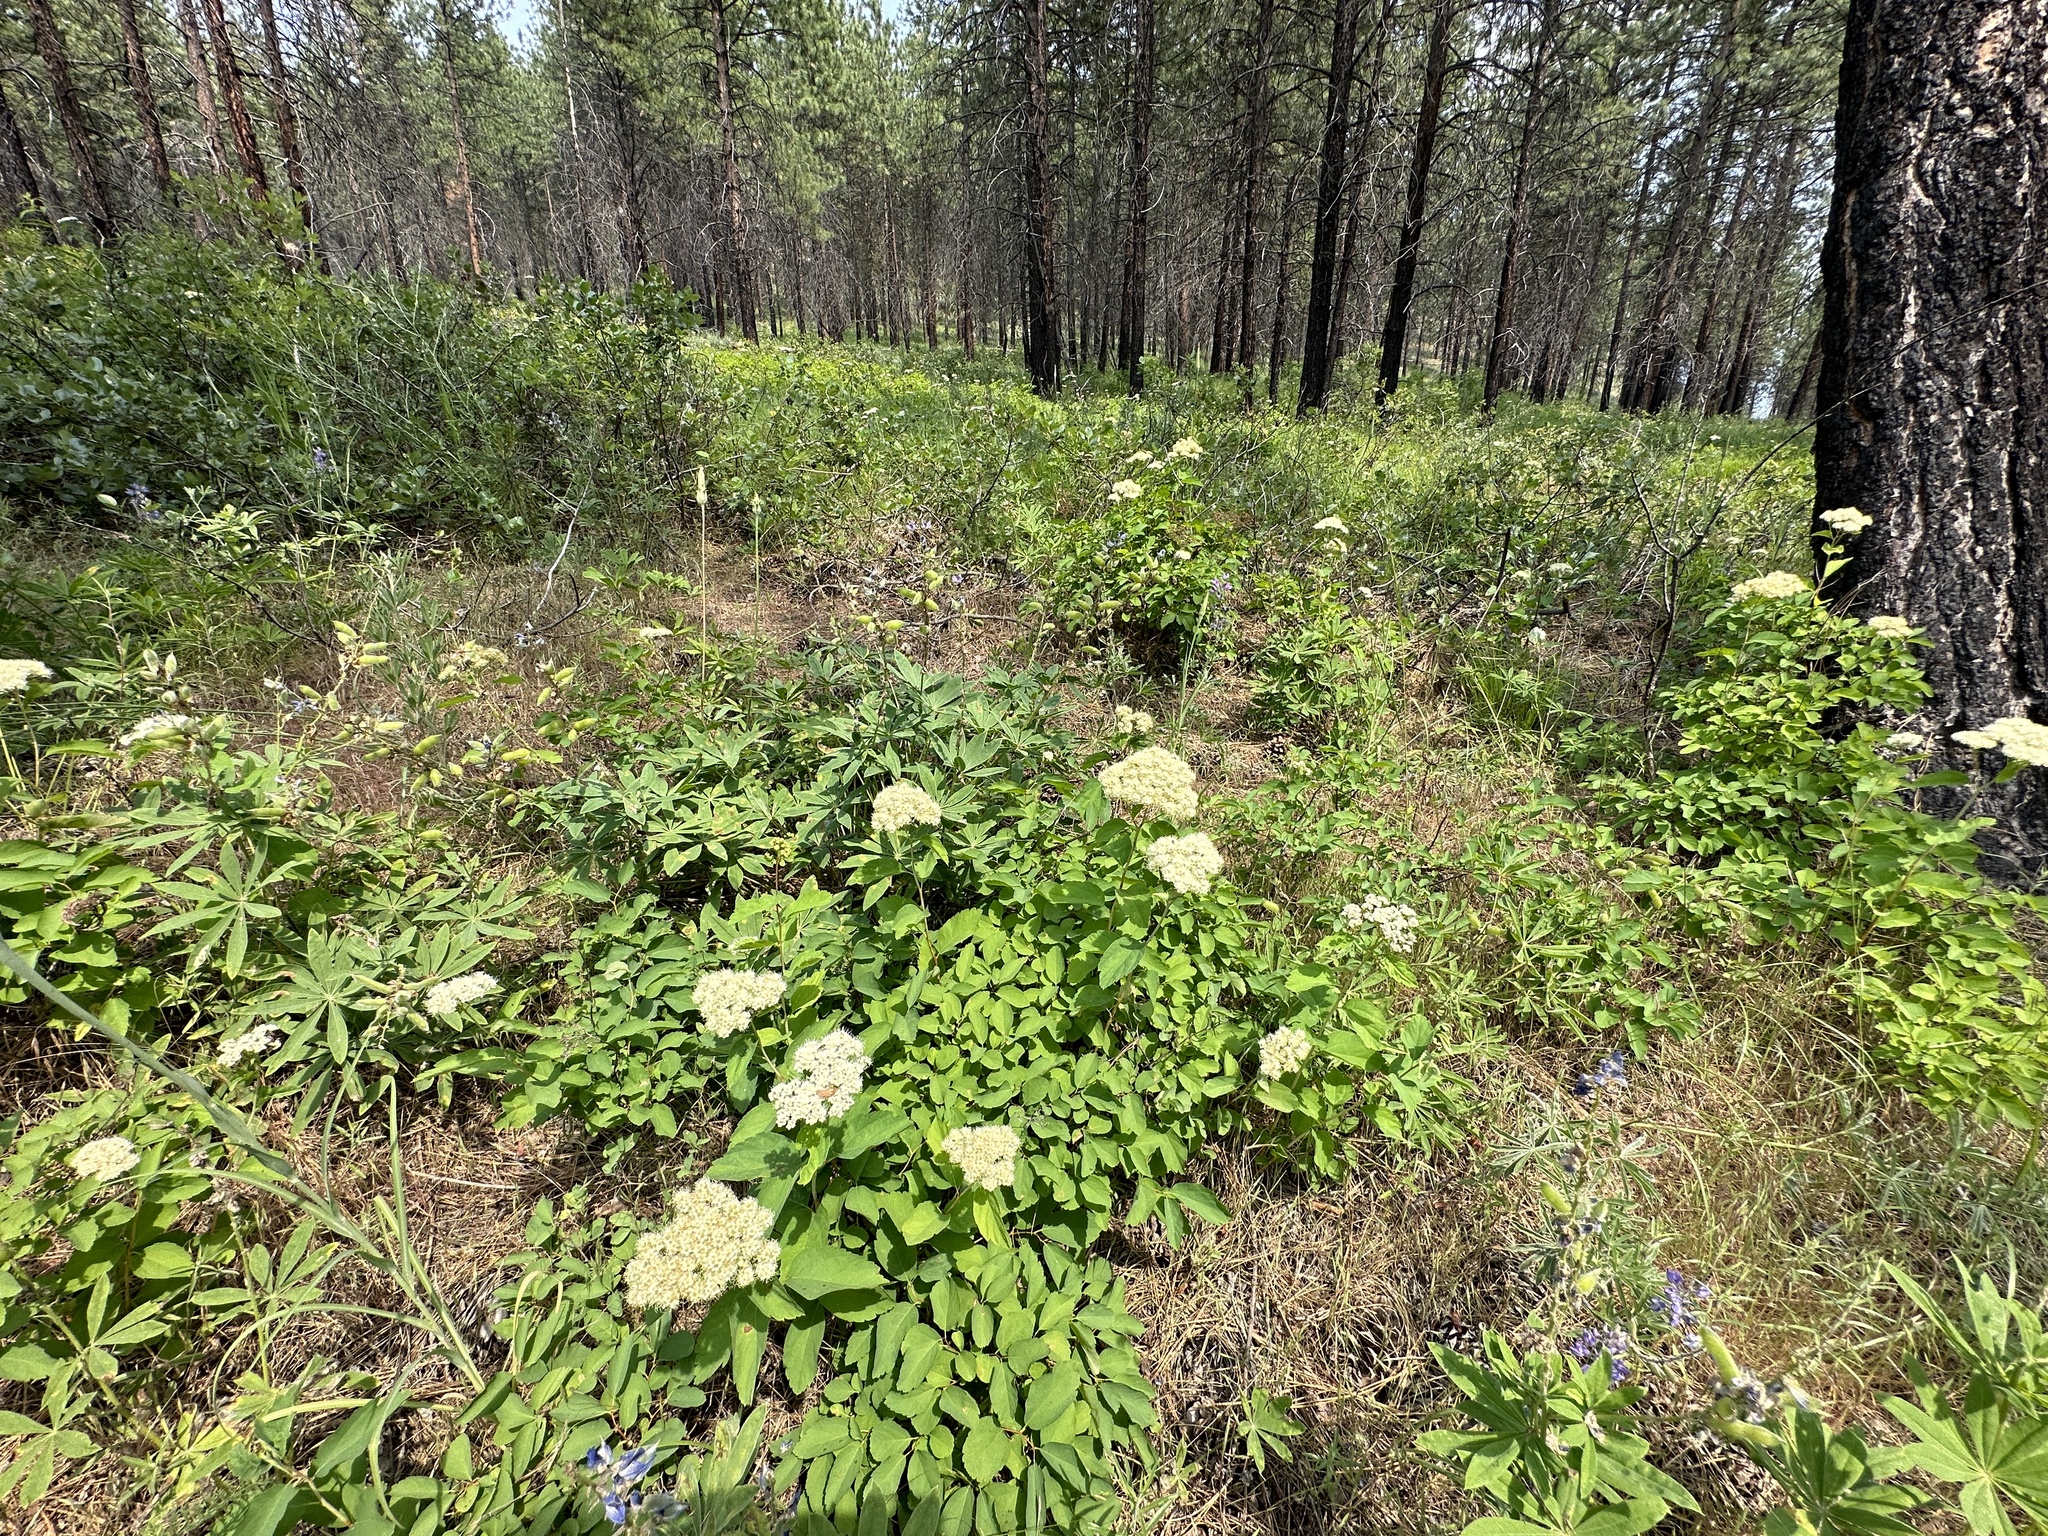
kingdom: Plantae
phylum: Tracheophyta
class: Magnoliopsida
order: Rosales
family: Rosaceae
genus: Spiraea
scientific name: Spiraea lucida
